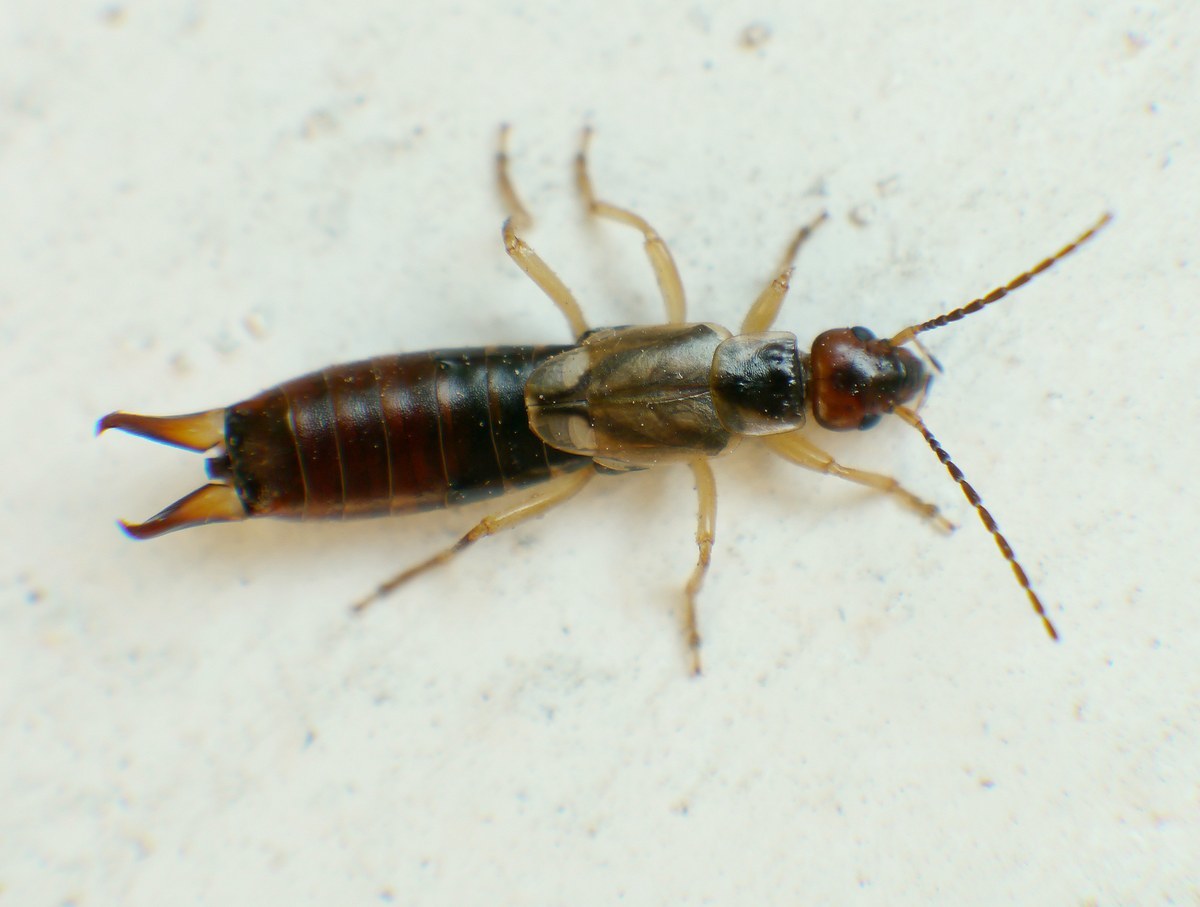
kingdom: Animalia
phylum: Arthropoda
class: Insecta
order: Dermaptera
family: Forficulidae
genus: Forficula
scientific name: Forficula
